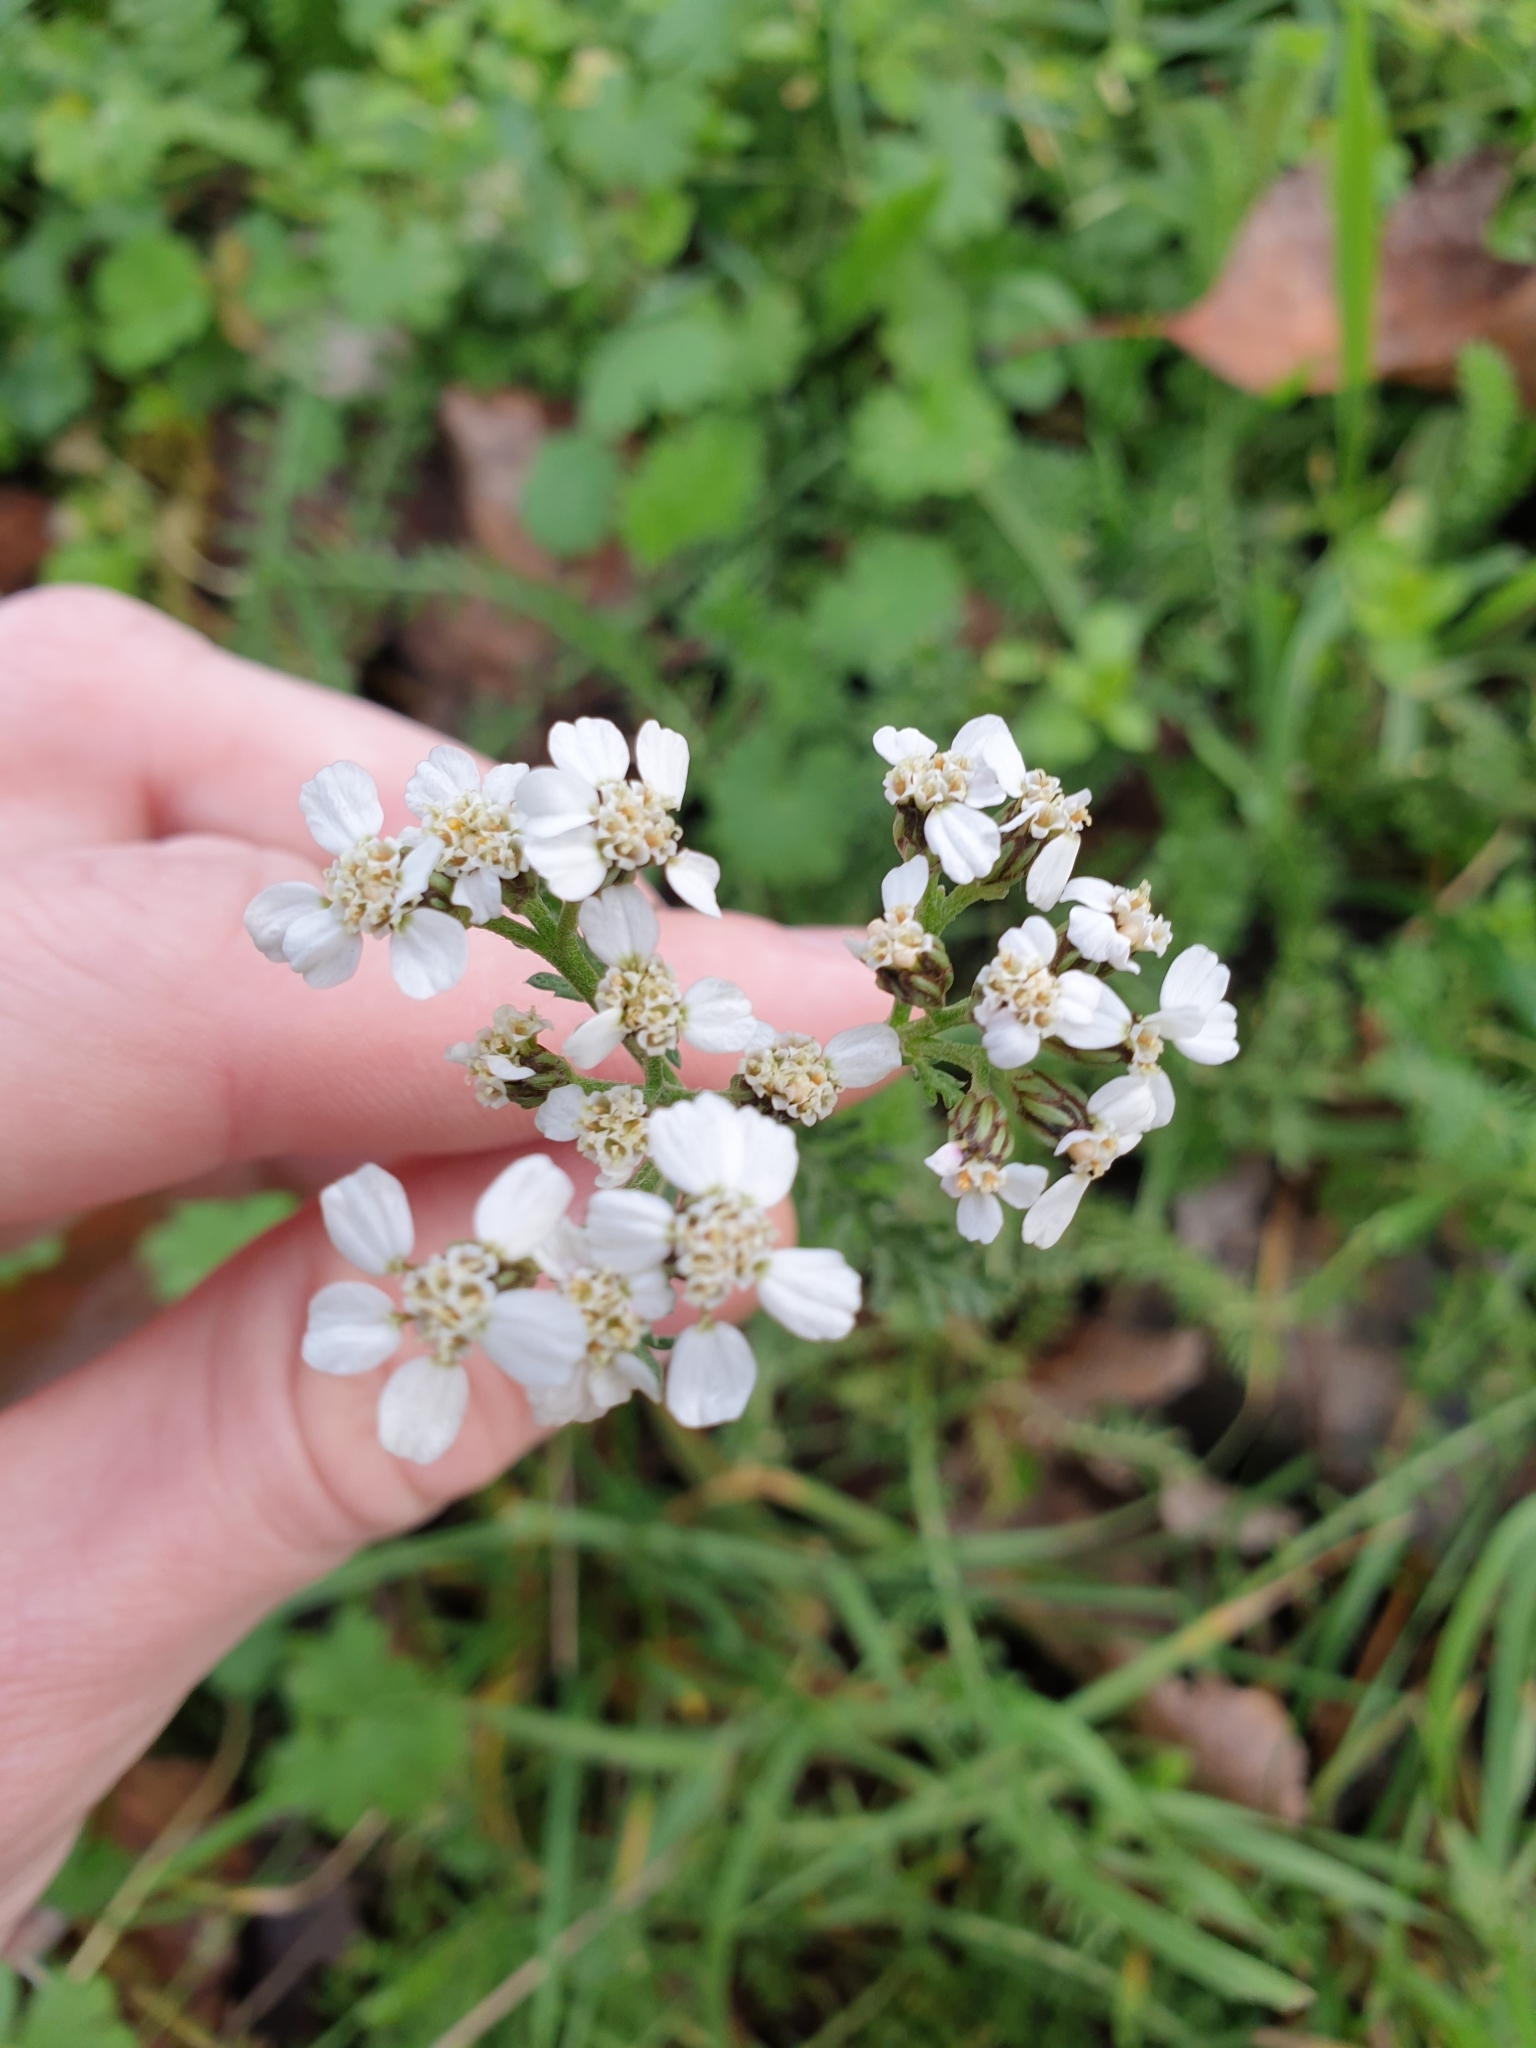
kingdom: Plantae
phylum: Tracheophyta
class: Magnoliopsida
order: Asterales
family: Asteraceae
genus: Achillea
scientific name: Achillea millefolium
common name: Yarrow
